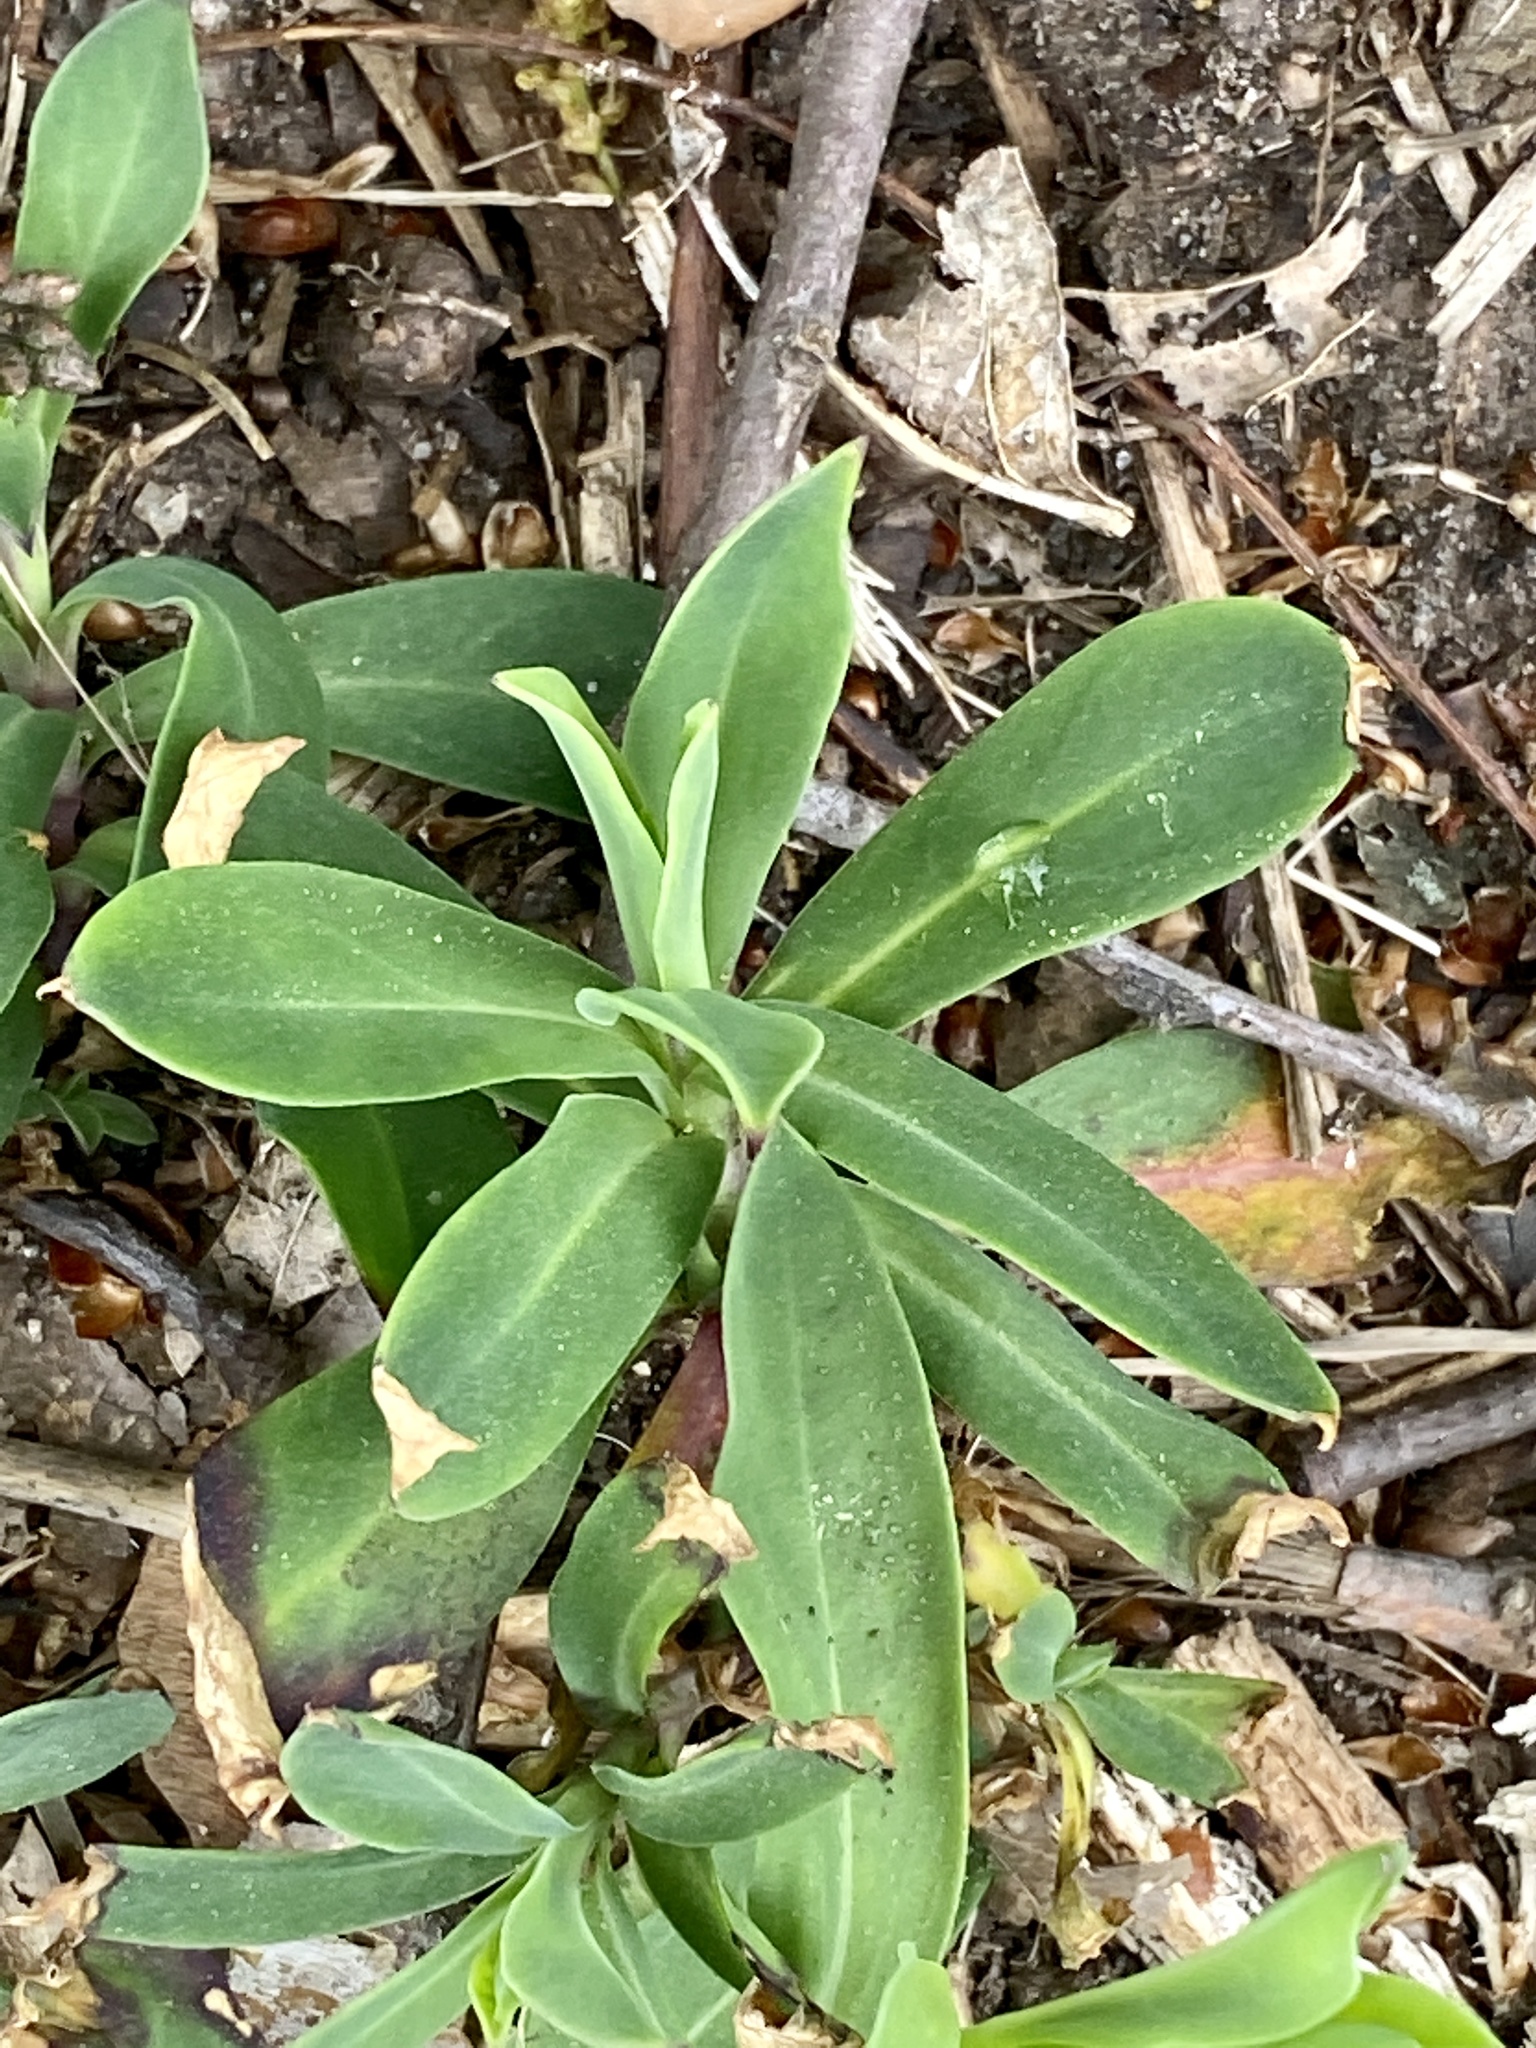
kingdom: Plantae
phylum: Tracheophyta
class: Magnoliopsida
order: Caryophyllales
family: Caryophyllaceae
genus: Silene
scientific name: Silene vulgaris
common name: Bladder campion
